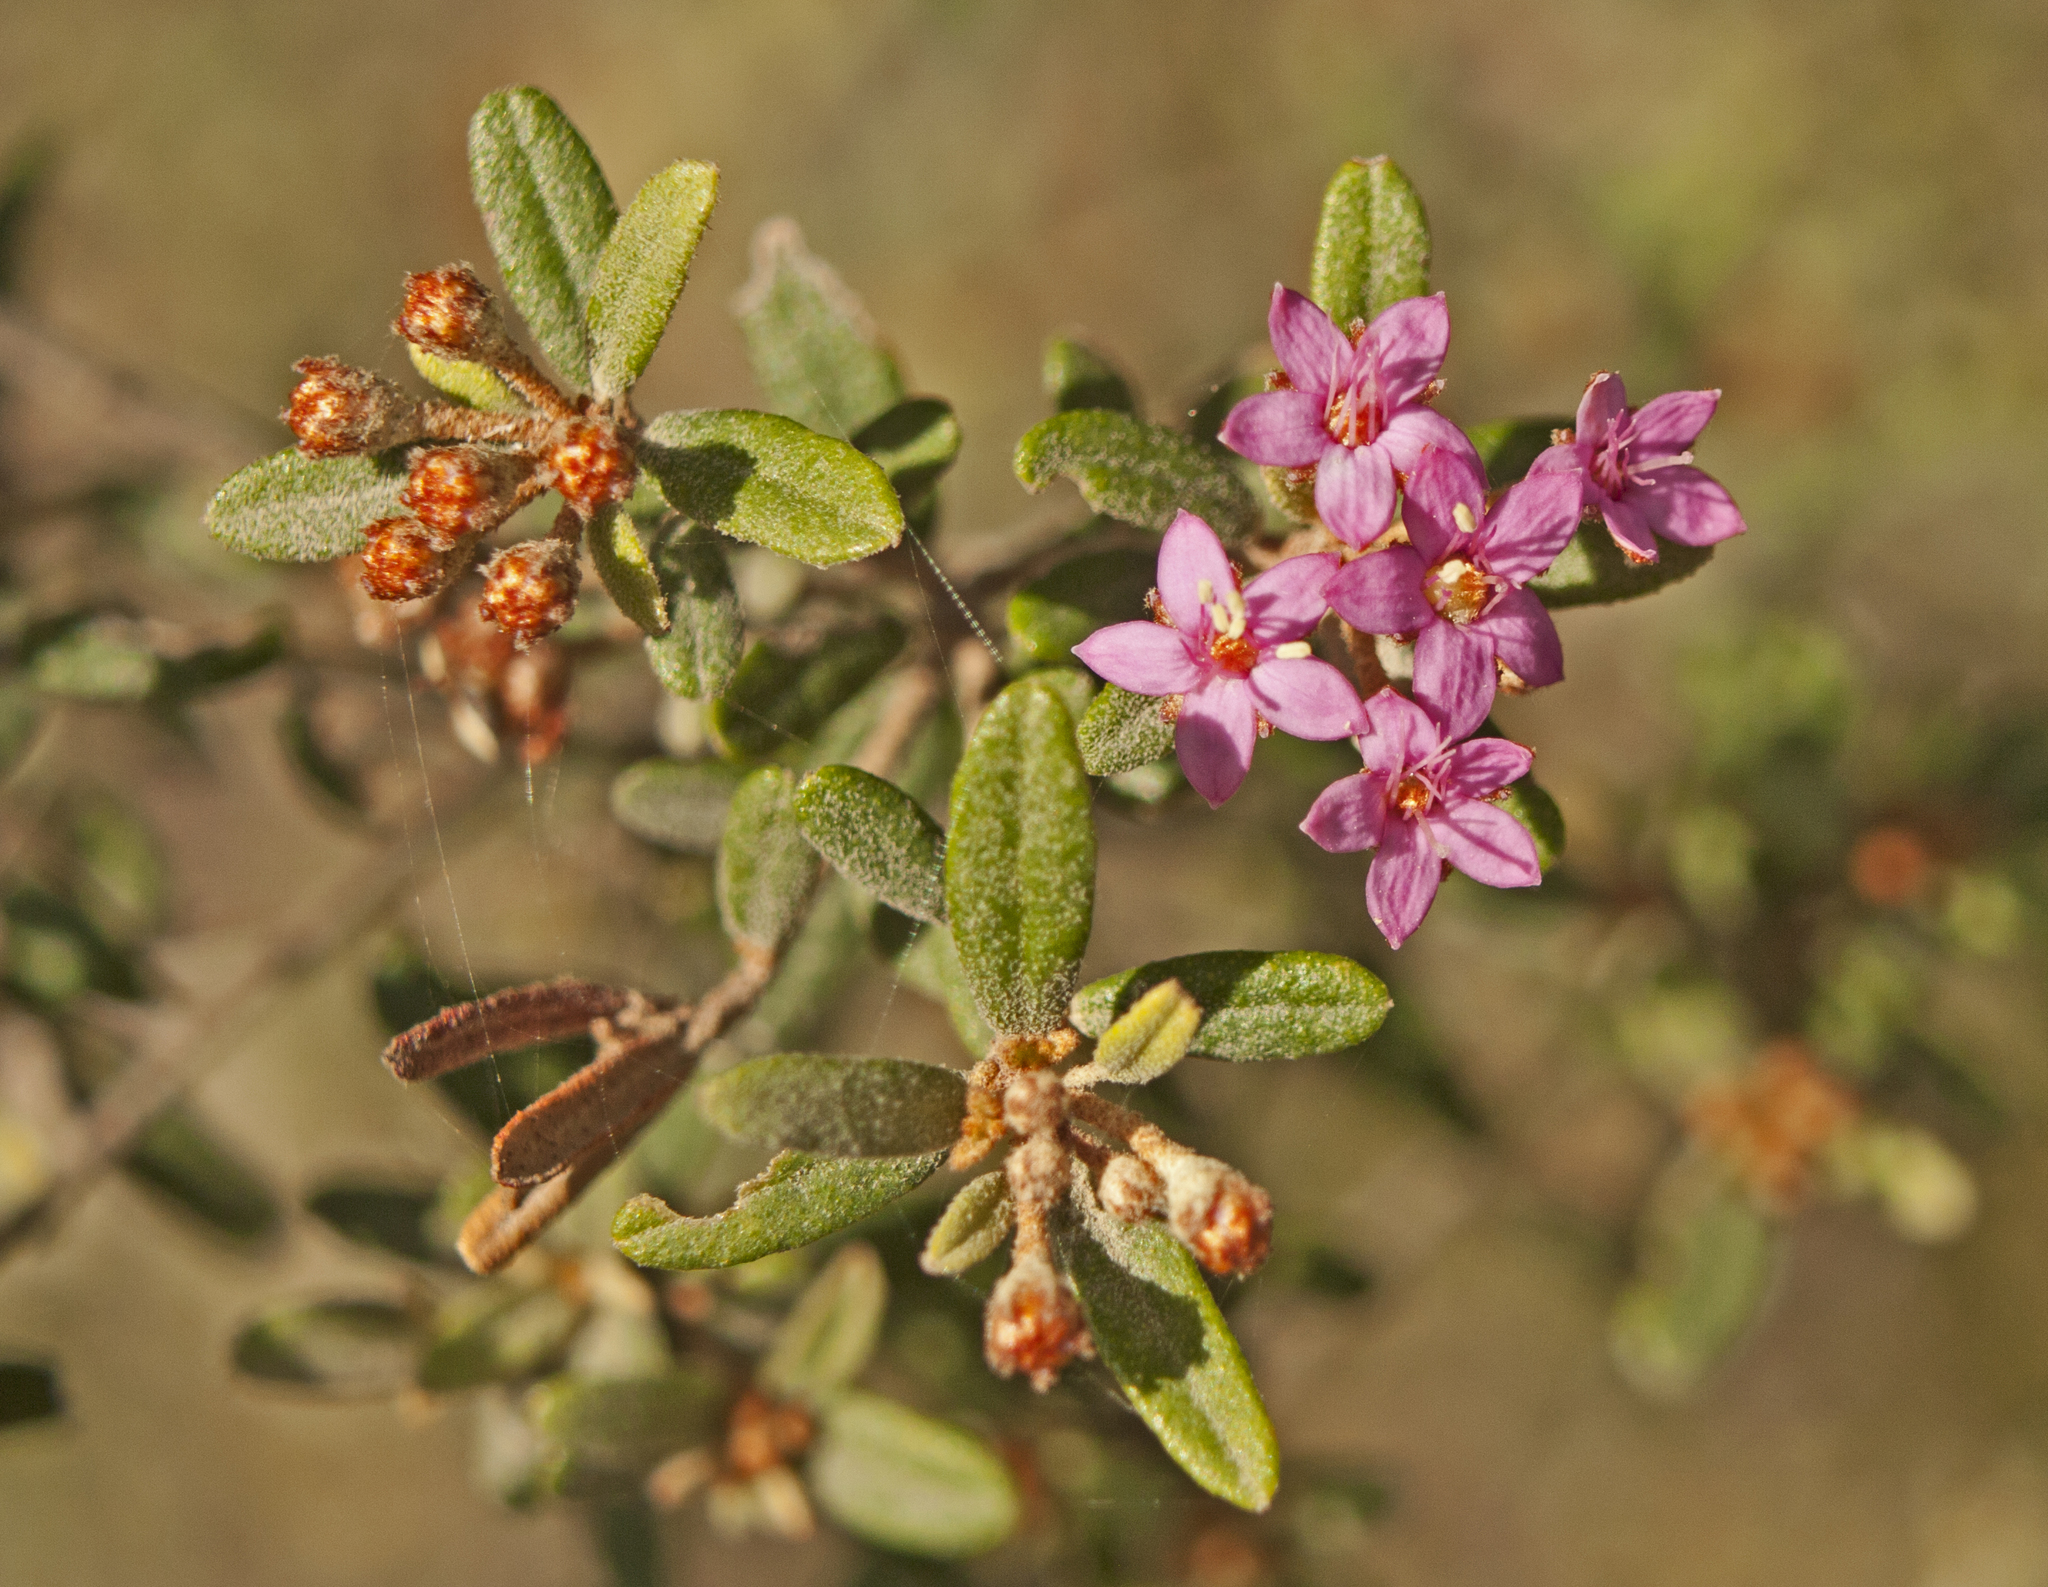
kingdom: Plantae
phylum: Tracheophyta
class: Magnoliopsida
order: Sapindales
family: Rutaceae
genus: Phebalium
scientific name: Phebalium woombye
